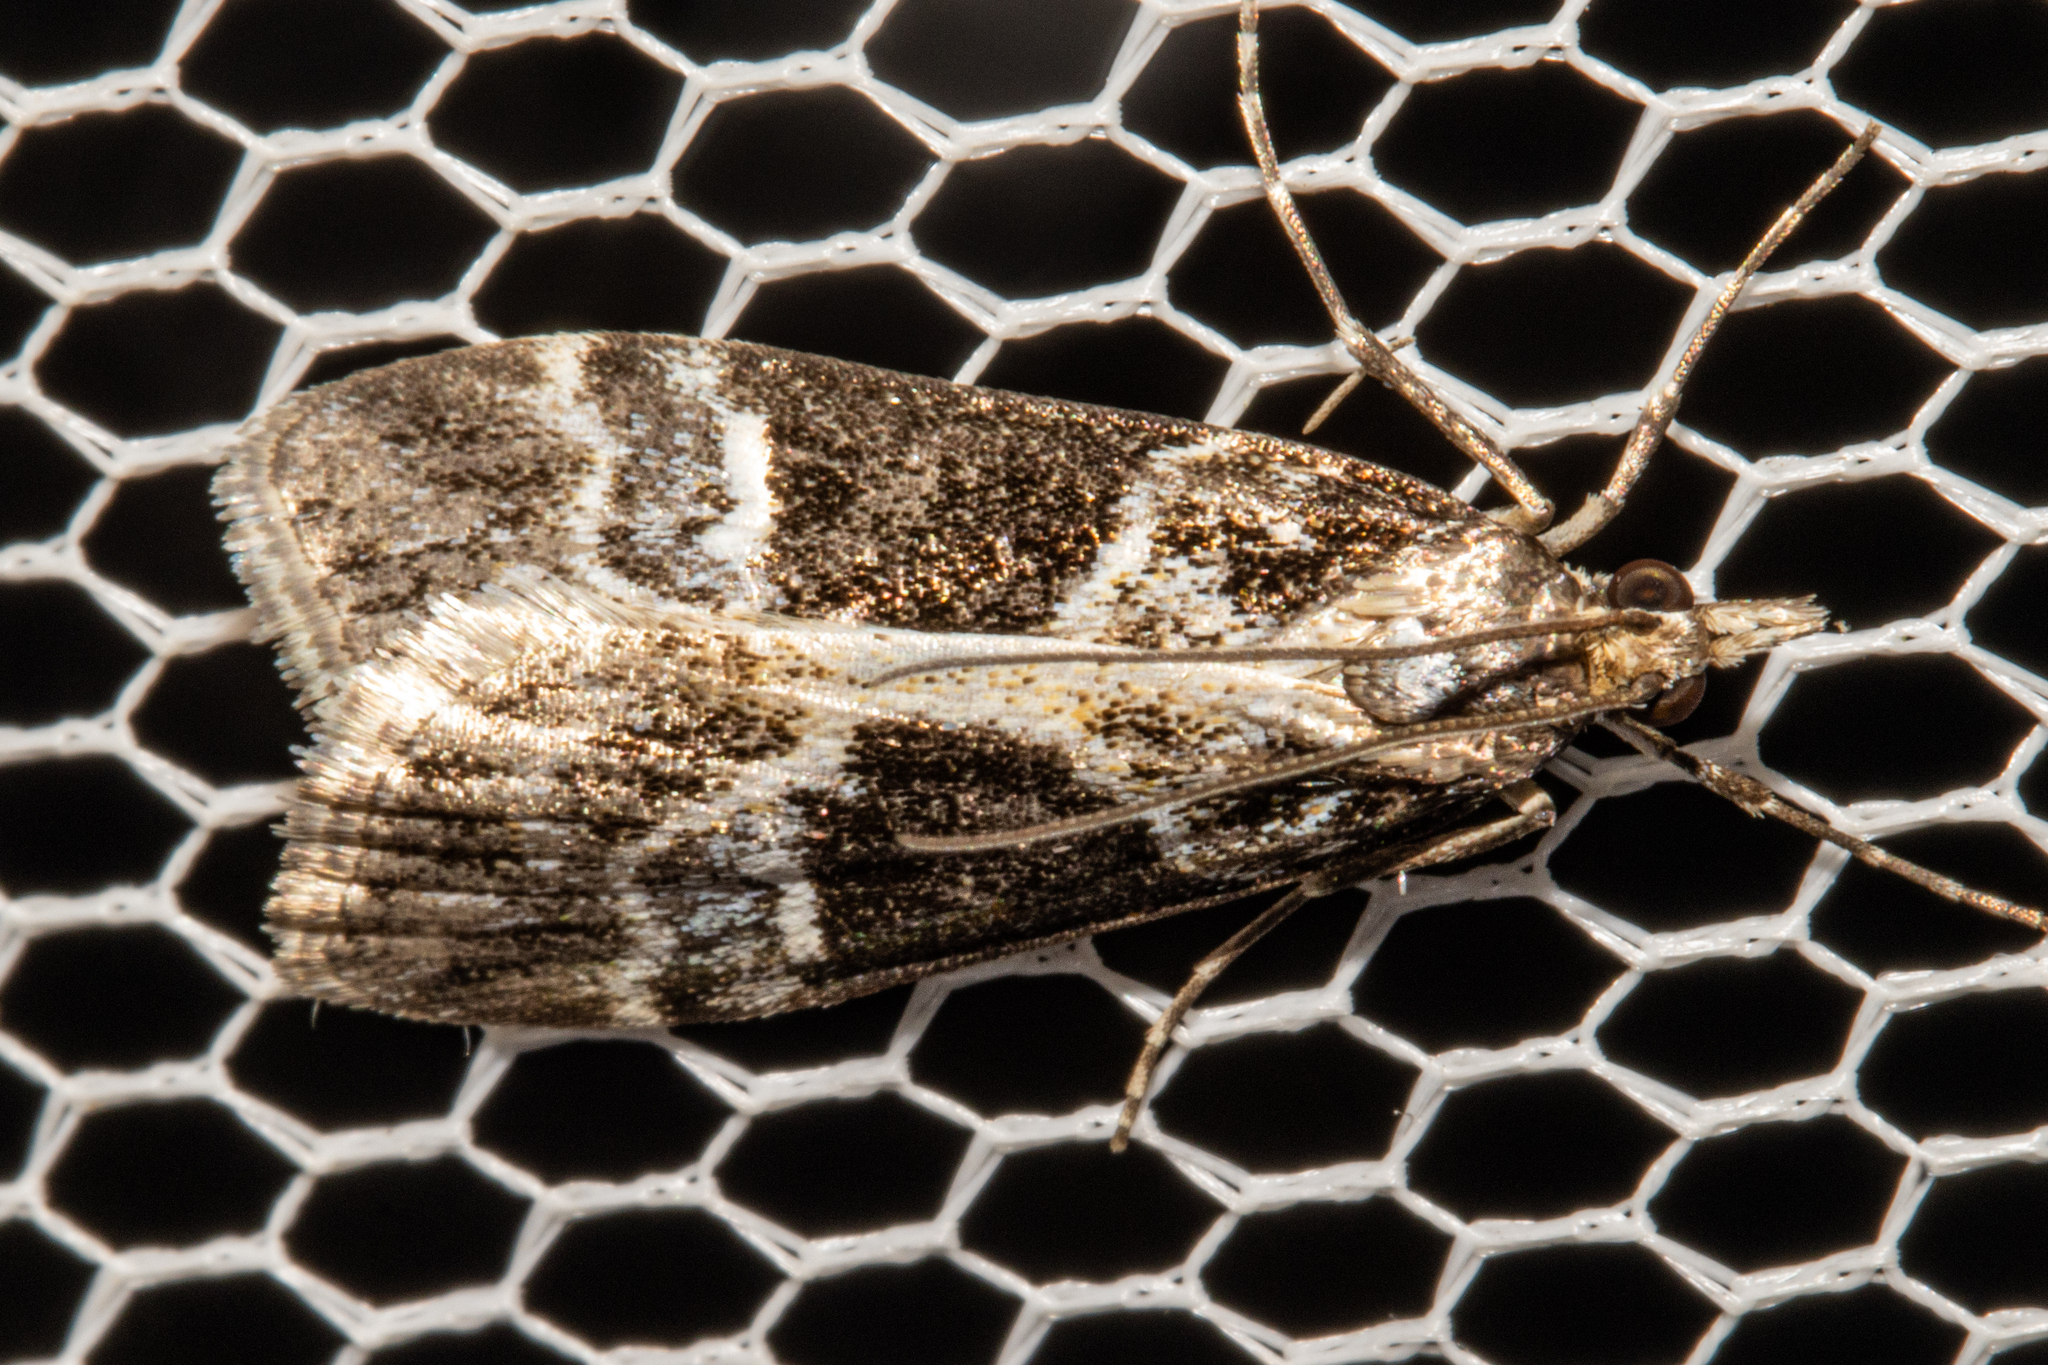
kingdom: Animalia
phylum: Arthropoda
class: Insecta
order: Lepidoptera
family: Crambidae
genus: Eudonia
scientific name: Eudonia melanaegis
